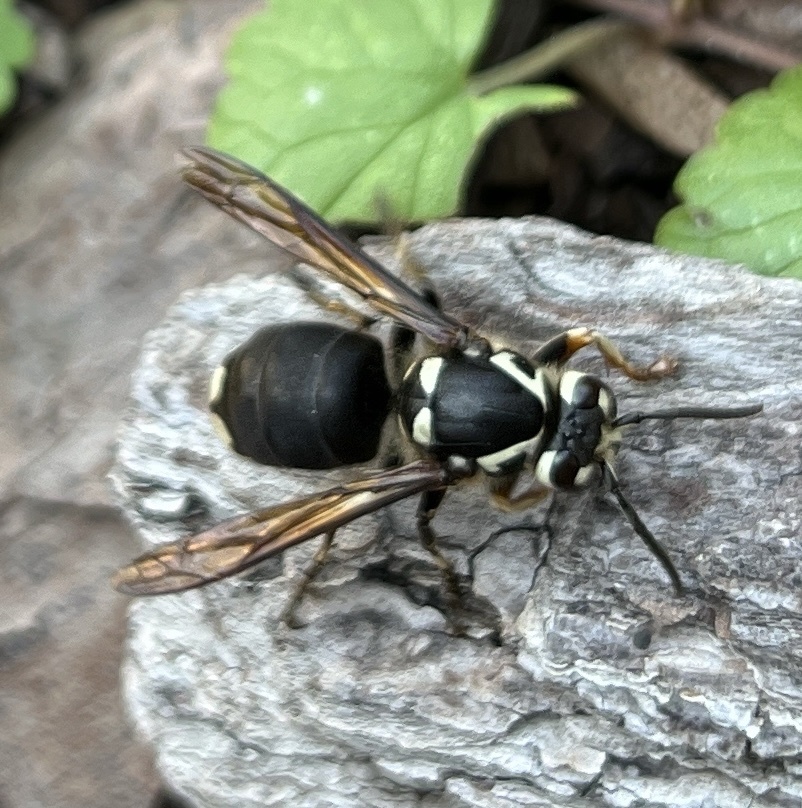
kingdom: Animalia
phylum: Arthropoda
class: Insecta
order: Hymenoptera
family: Vespidae
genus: Dolichovespula
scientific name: Dolichovespula maculata
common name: Bald-faced hornet
